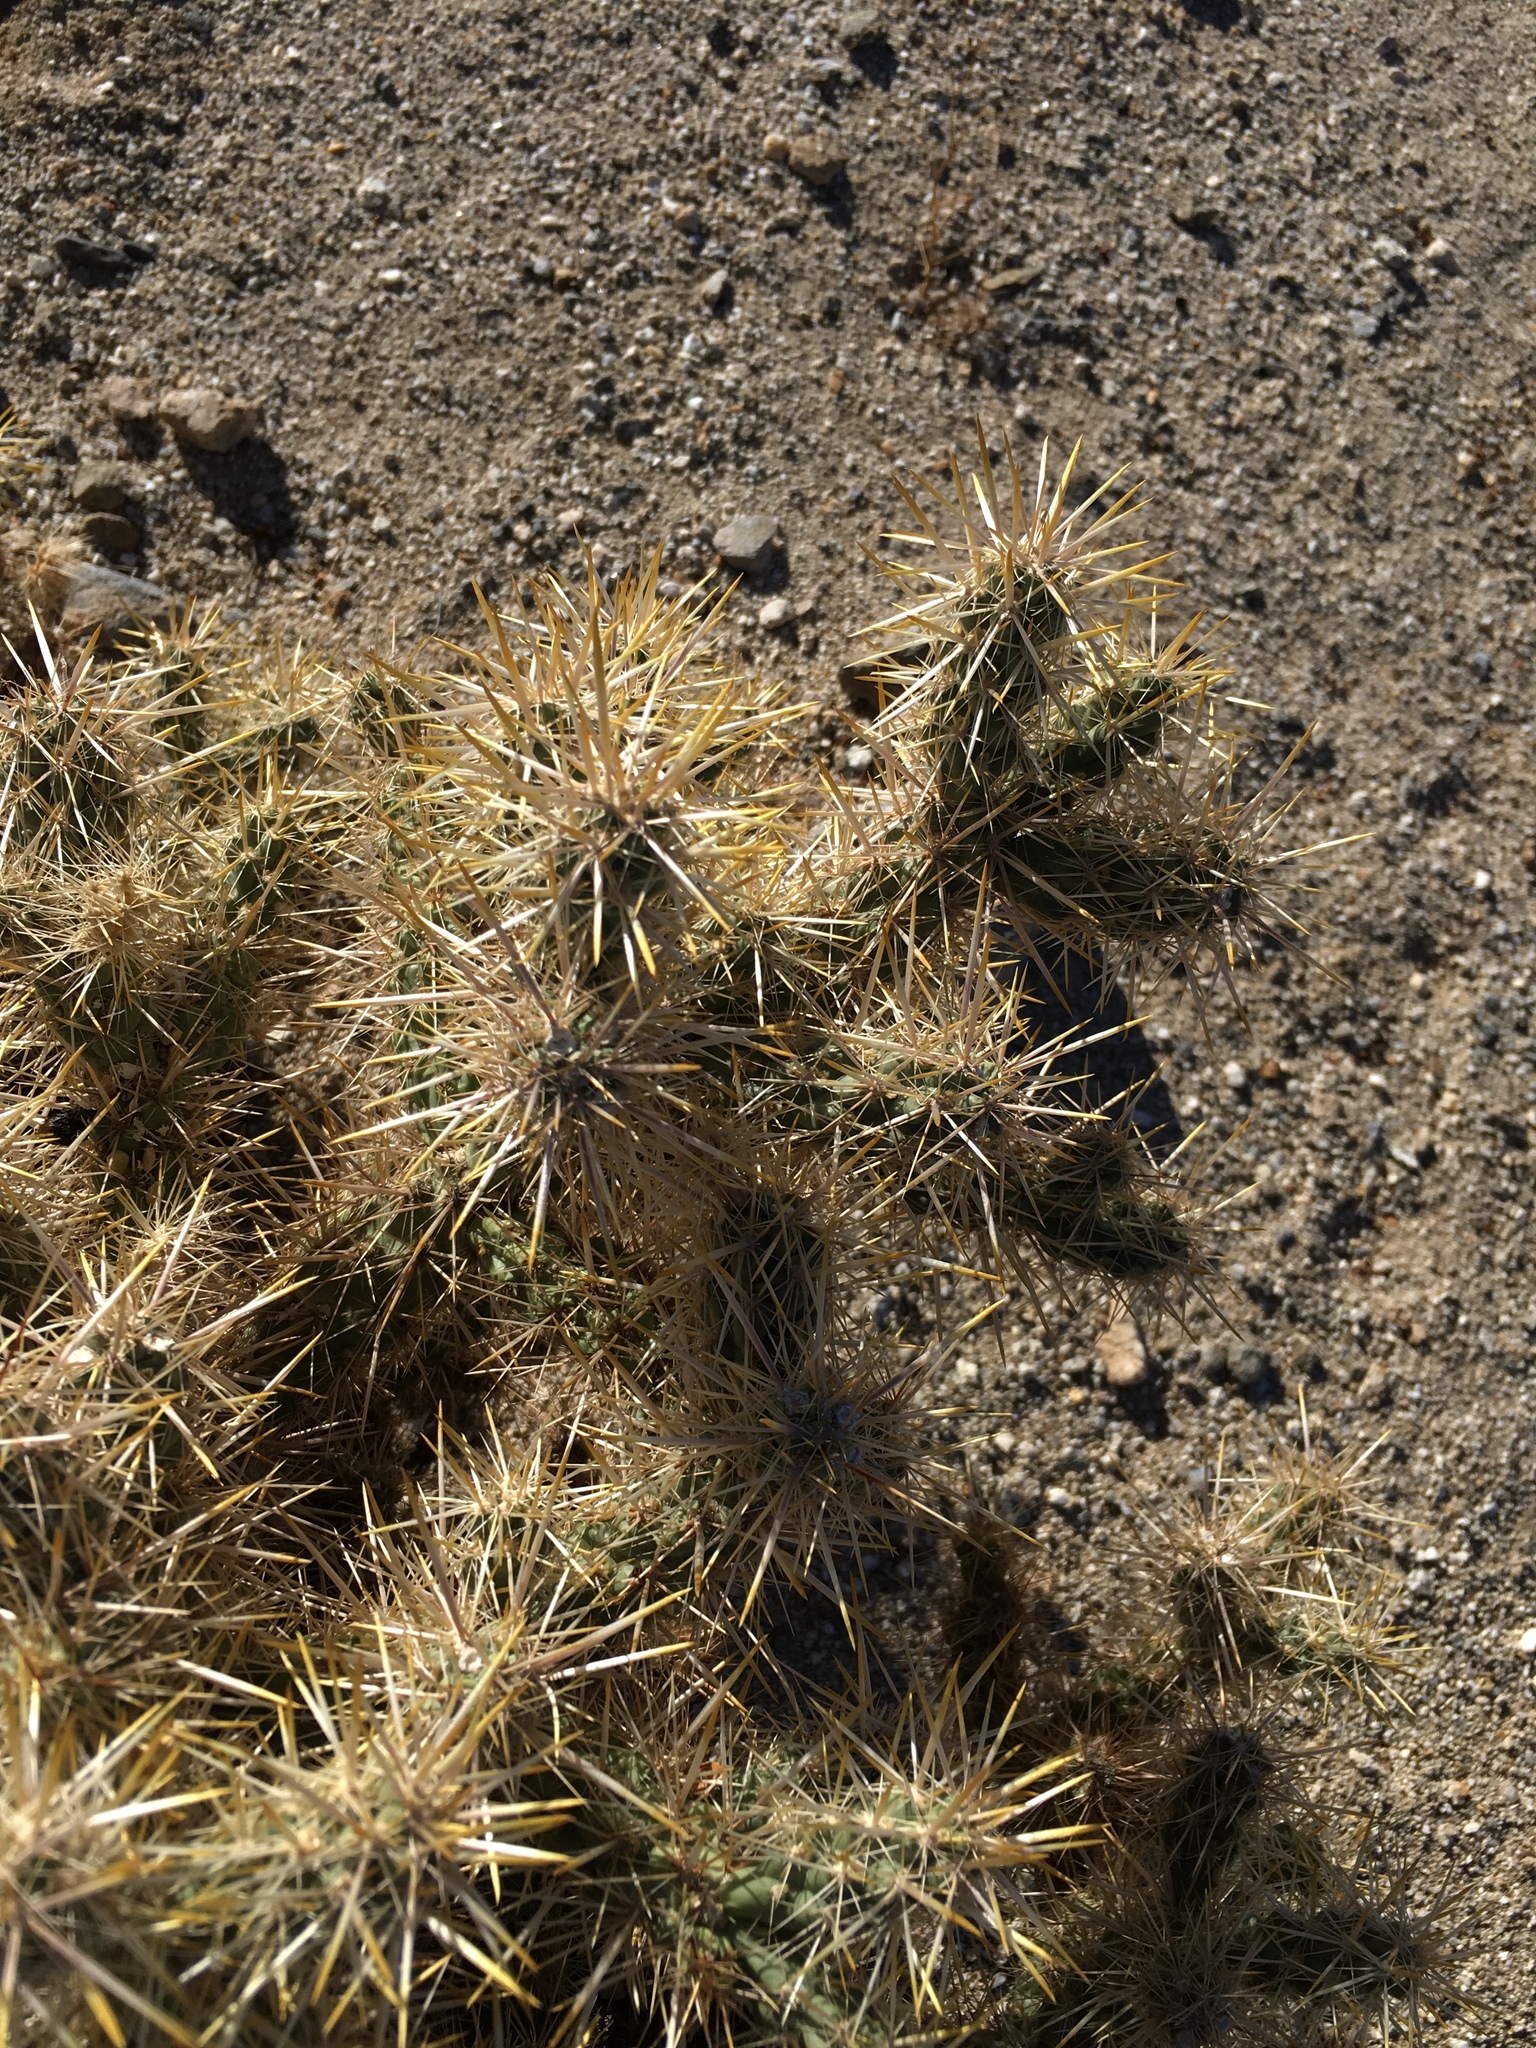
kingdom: Plantae
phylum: Tracheophyta
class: Magnoliopsida
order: Caryophyllales
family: Cactaceae
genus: Cylindropuntia
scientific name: Cylindropuntia echinocarpa
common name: Ground cholla
